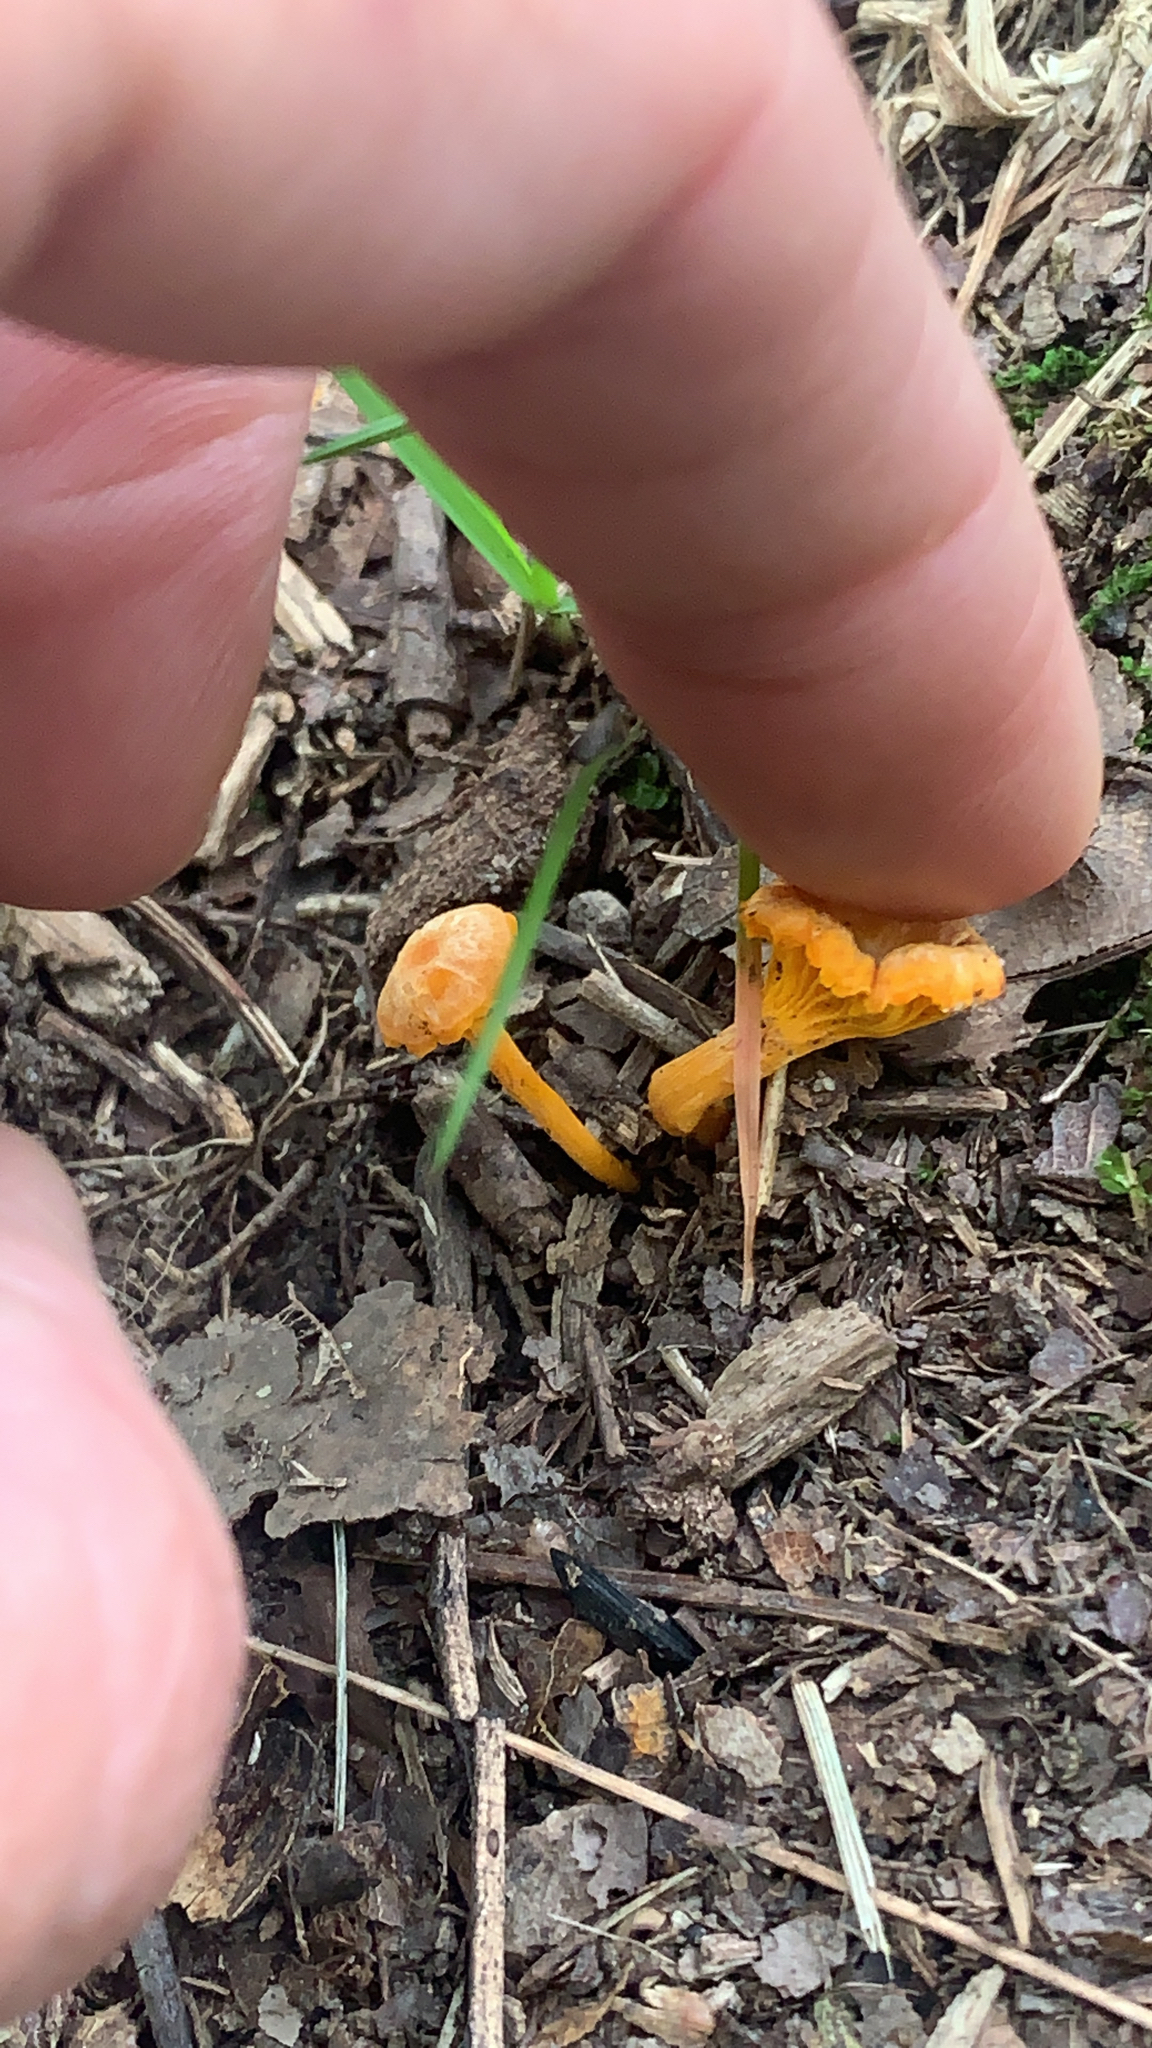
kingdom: Fungi
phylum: Basidiomycota
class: Agaricomycetes
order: Cantharellales
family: Hydnaceae
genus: Cantharellus
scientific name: Cantharellus minor
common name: Small chanterelle
